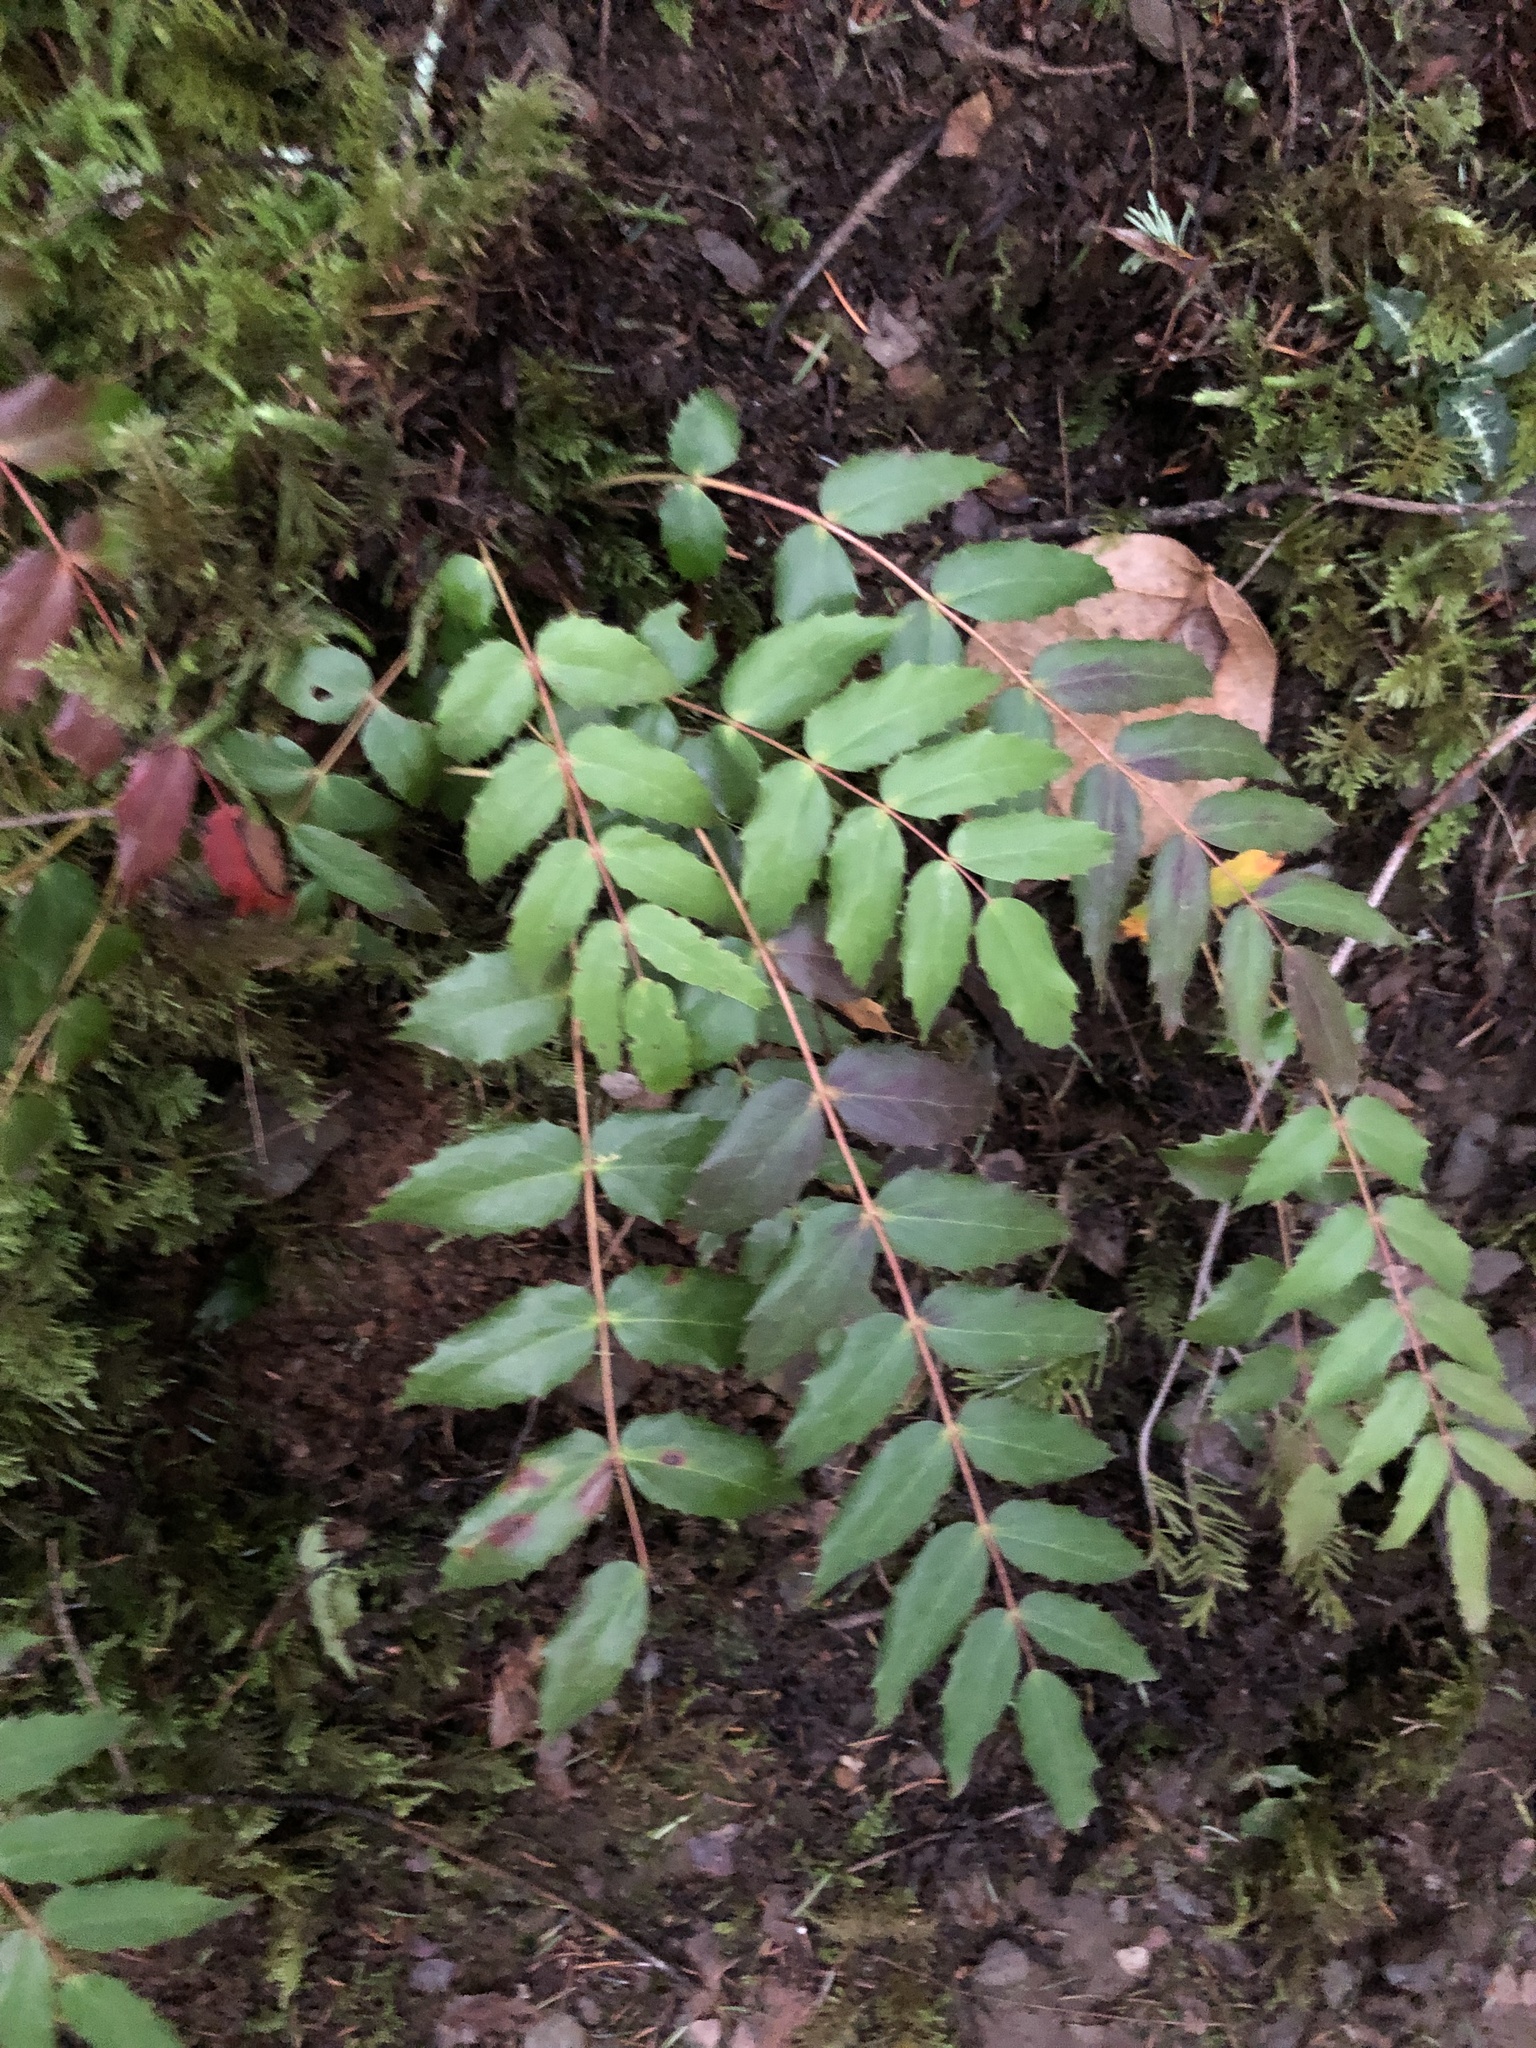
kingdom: Plantae
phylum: Tracheophyta
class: Magnoliopsida
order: Ranunculales
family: Berberidaceae
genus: Mahonia
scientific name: Mahonia nervosa
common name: Cascade oregon-grape
